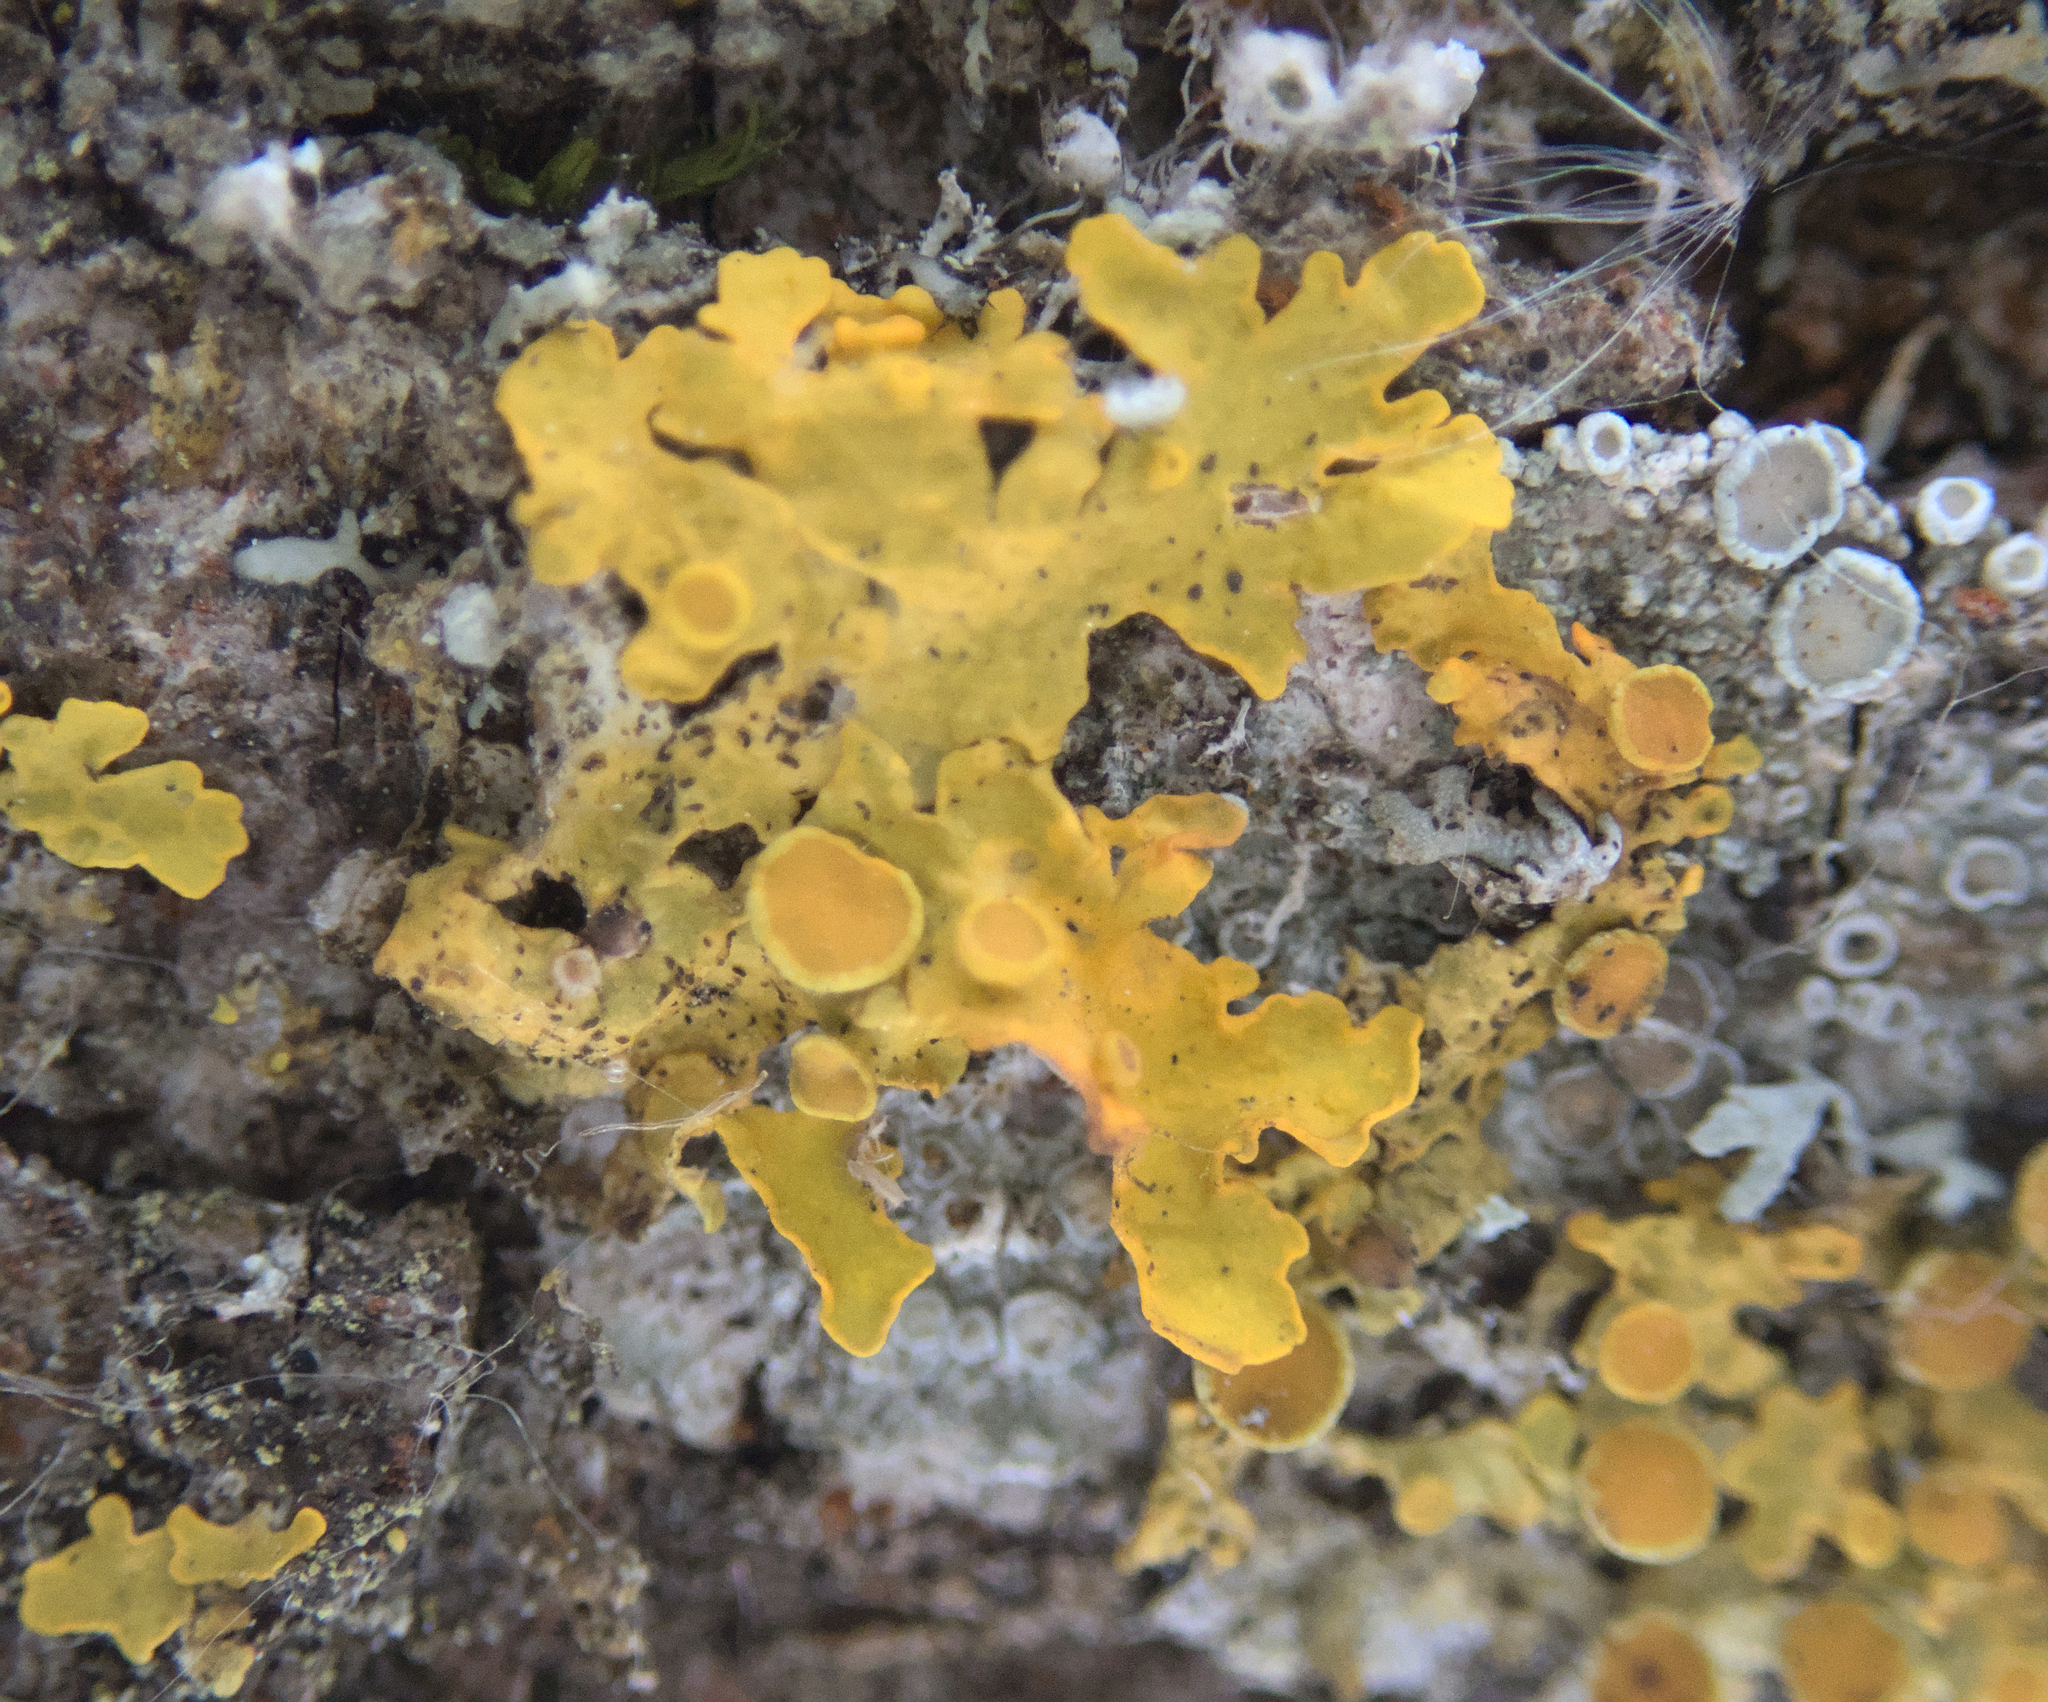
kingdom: Fungi
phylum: Ascomycota
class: Lecanoromycetes
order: Teloschistales
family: Teloschistaceae
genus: Xanthoria
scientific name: Xanthoria parietina
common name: Common orange lichen
